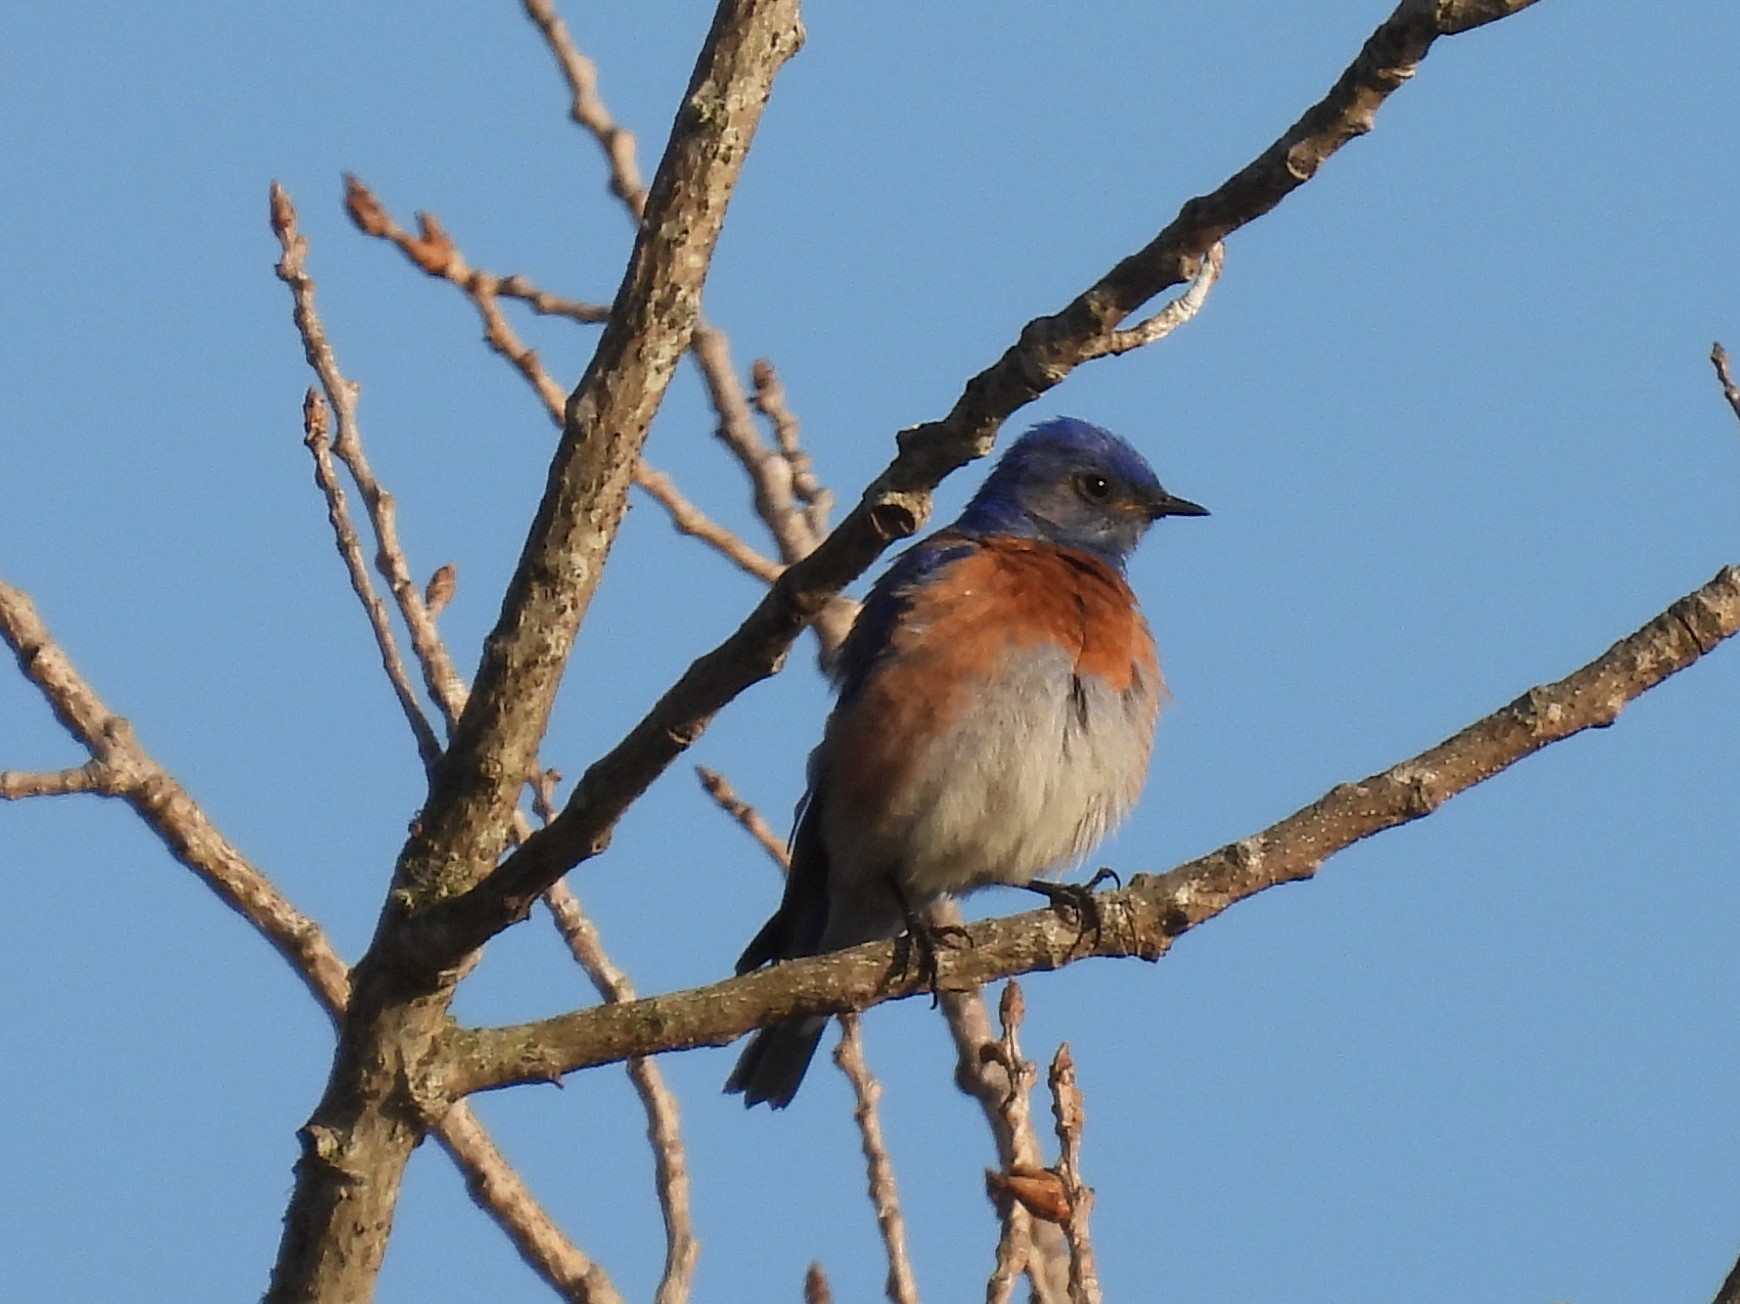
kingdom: Animalia
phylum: Chordata
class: Aves
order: Passeriformes
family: Turdidae
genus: Sialia
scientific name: Sialia mexicana
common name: Western bluebird
